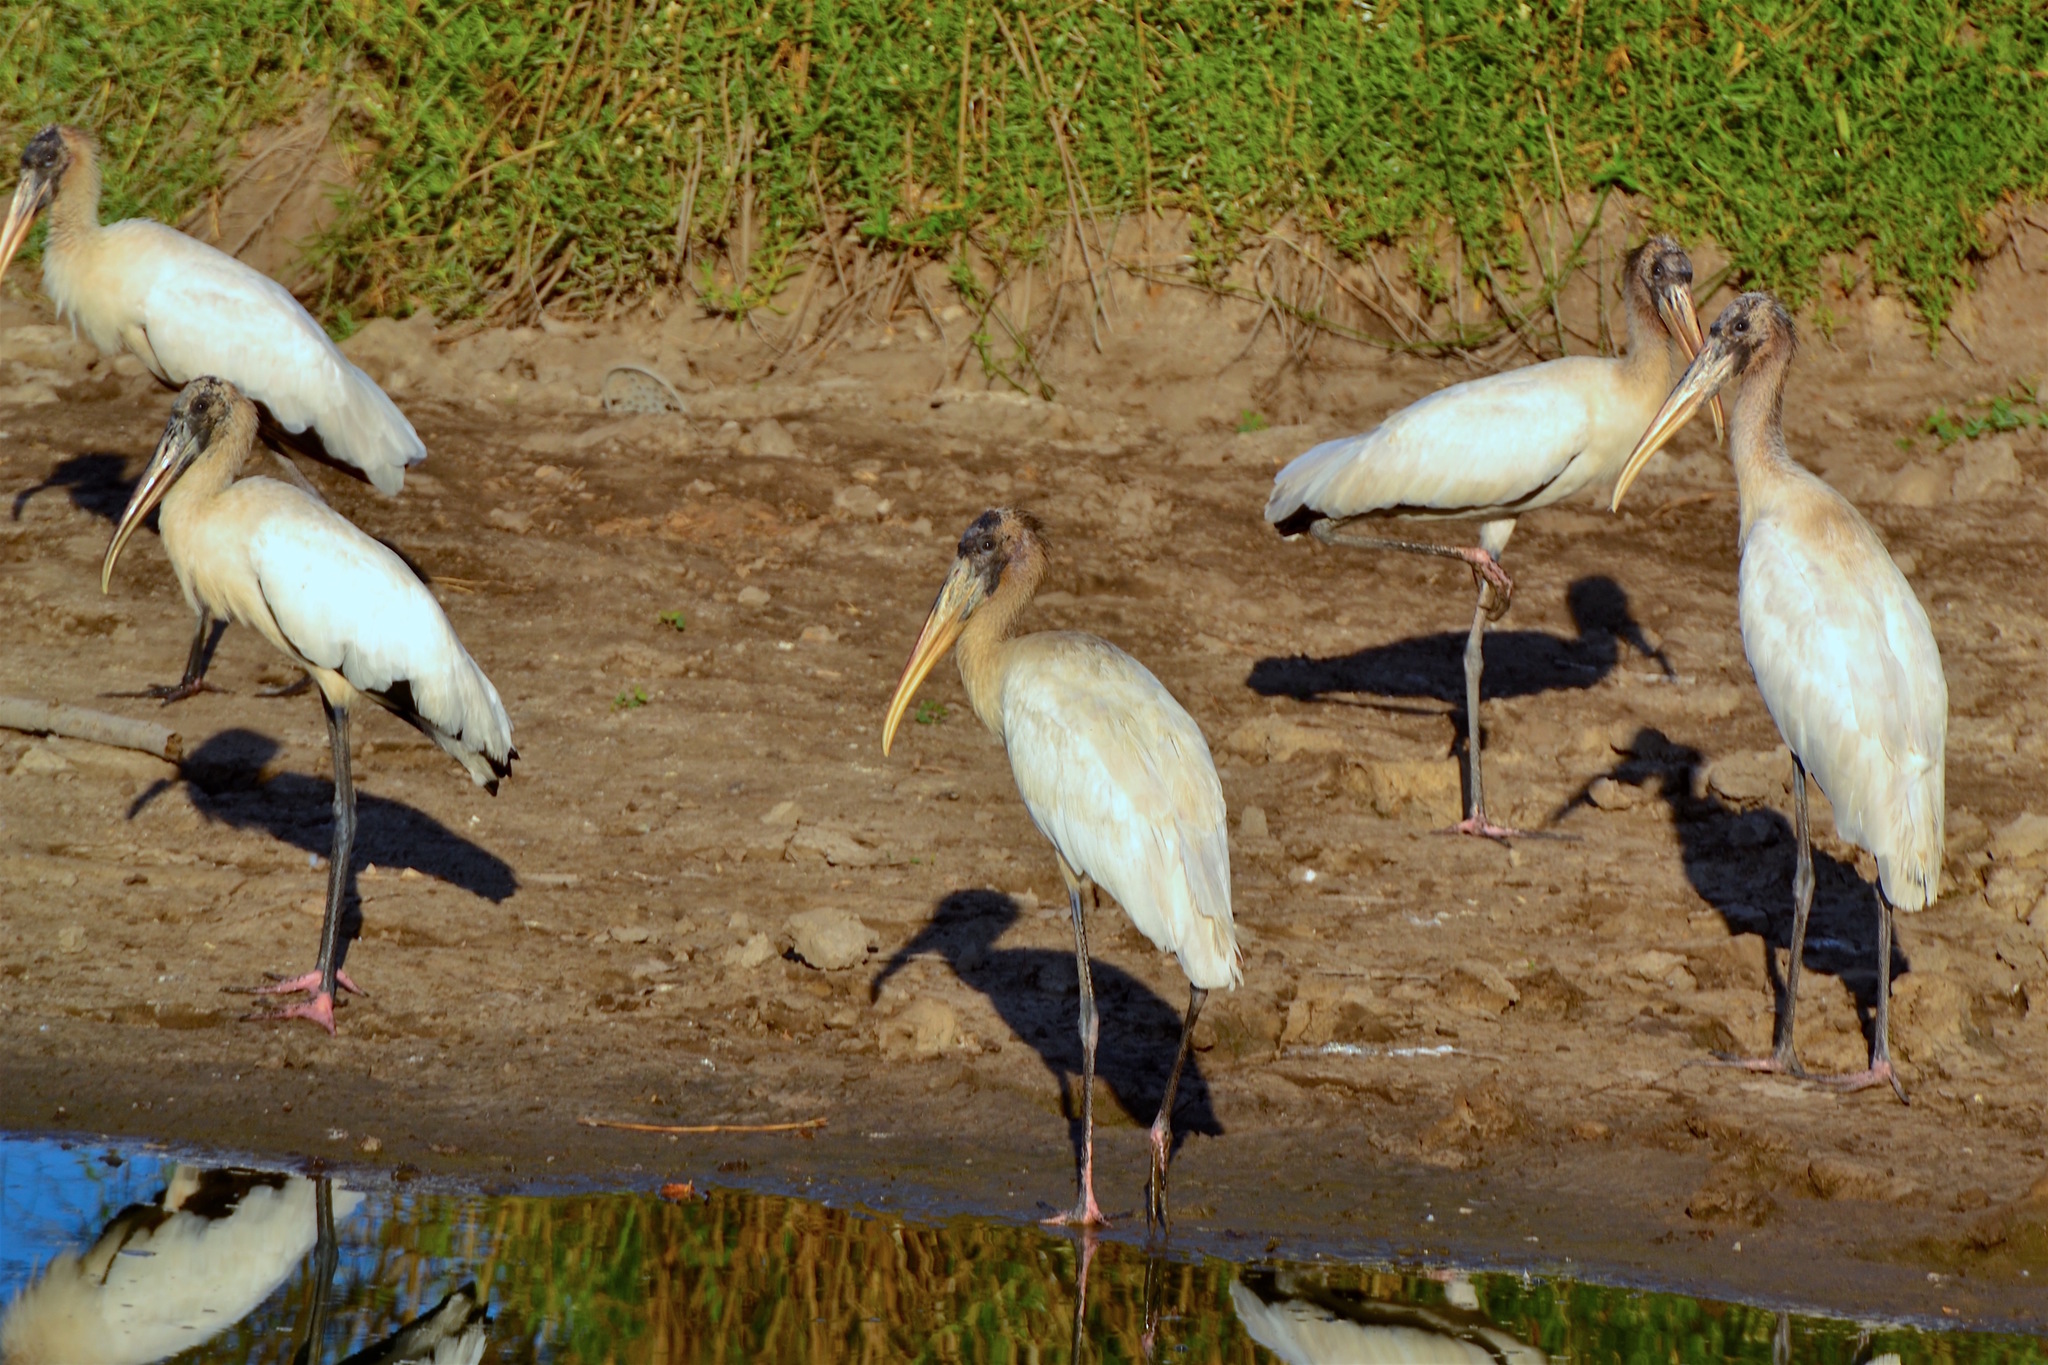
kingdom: Animalia
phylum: Chordata
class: Aves
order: Ciconiiformes
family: Ciconiidae
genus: Mycteria
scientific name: Mycteria americana
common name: Wood stork
